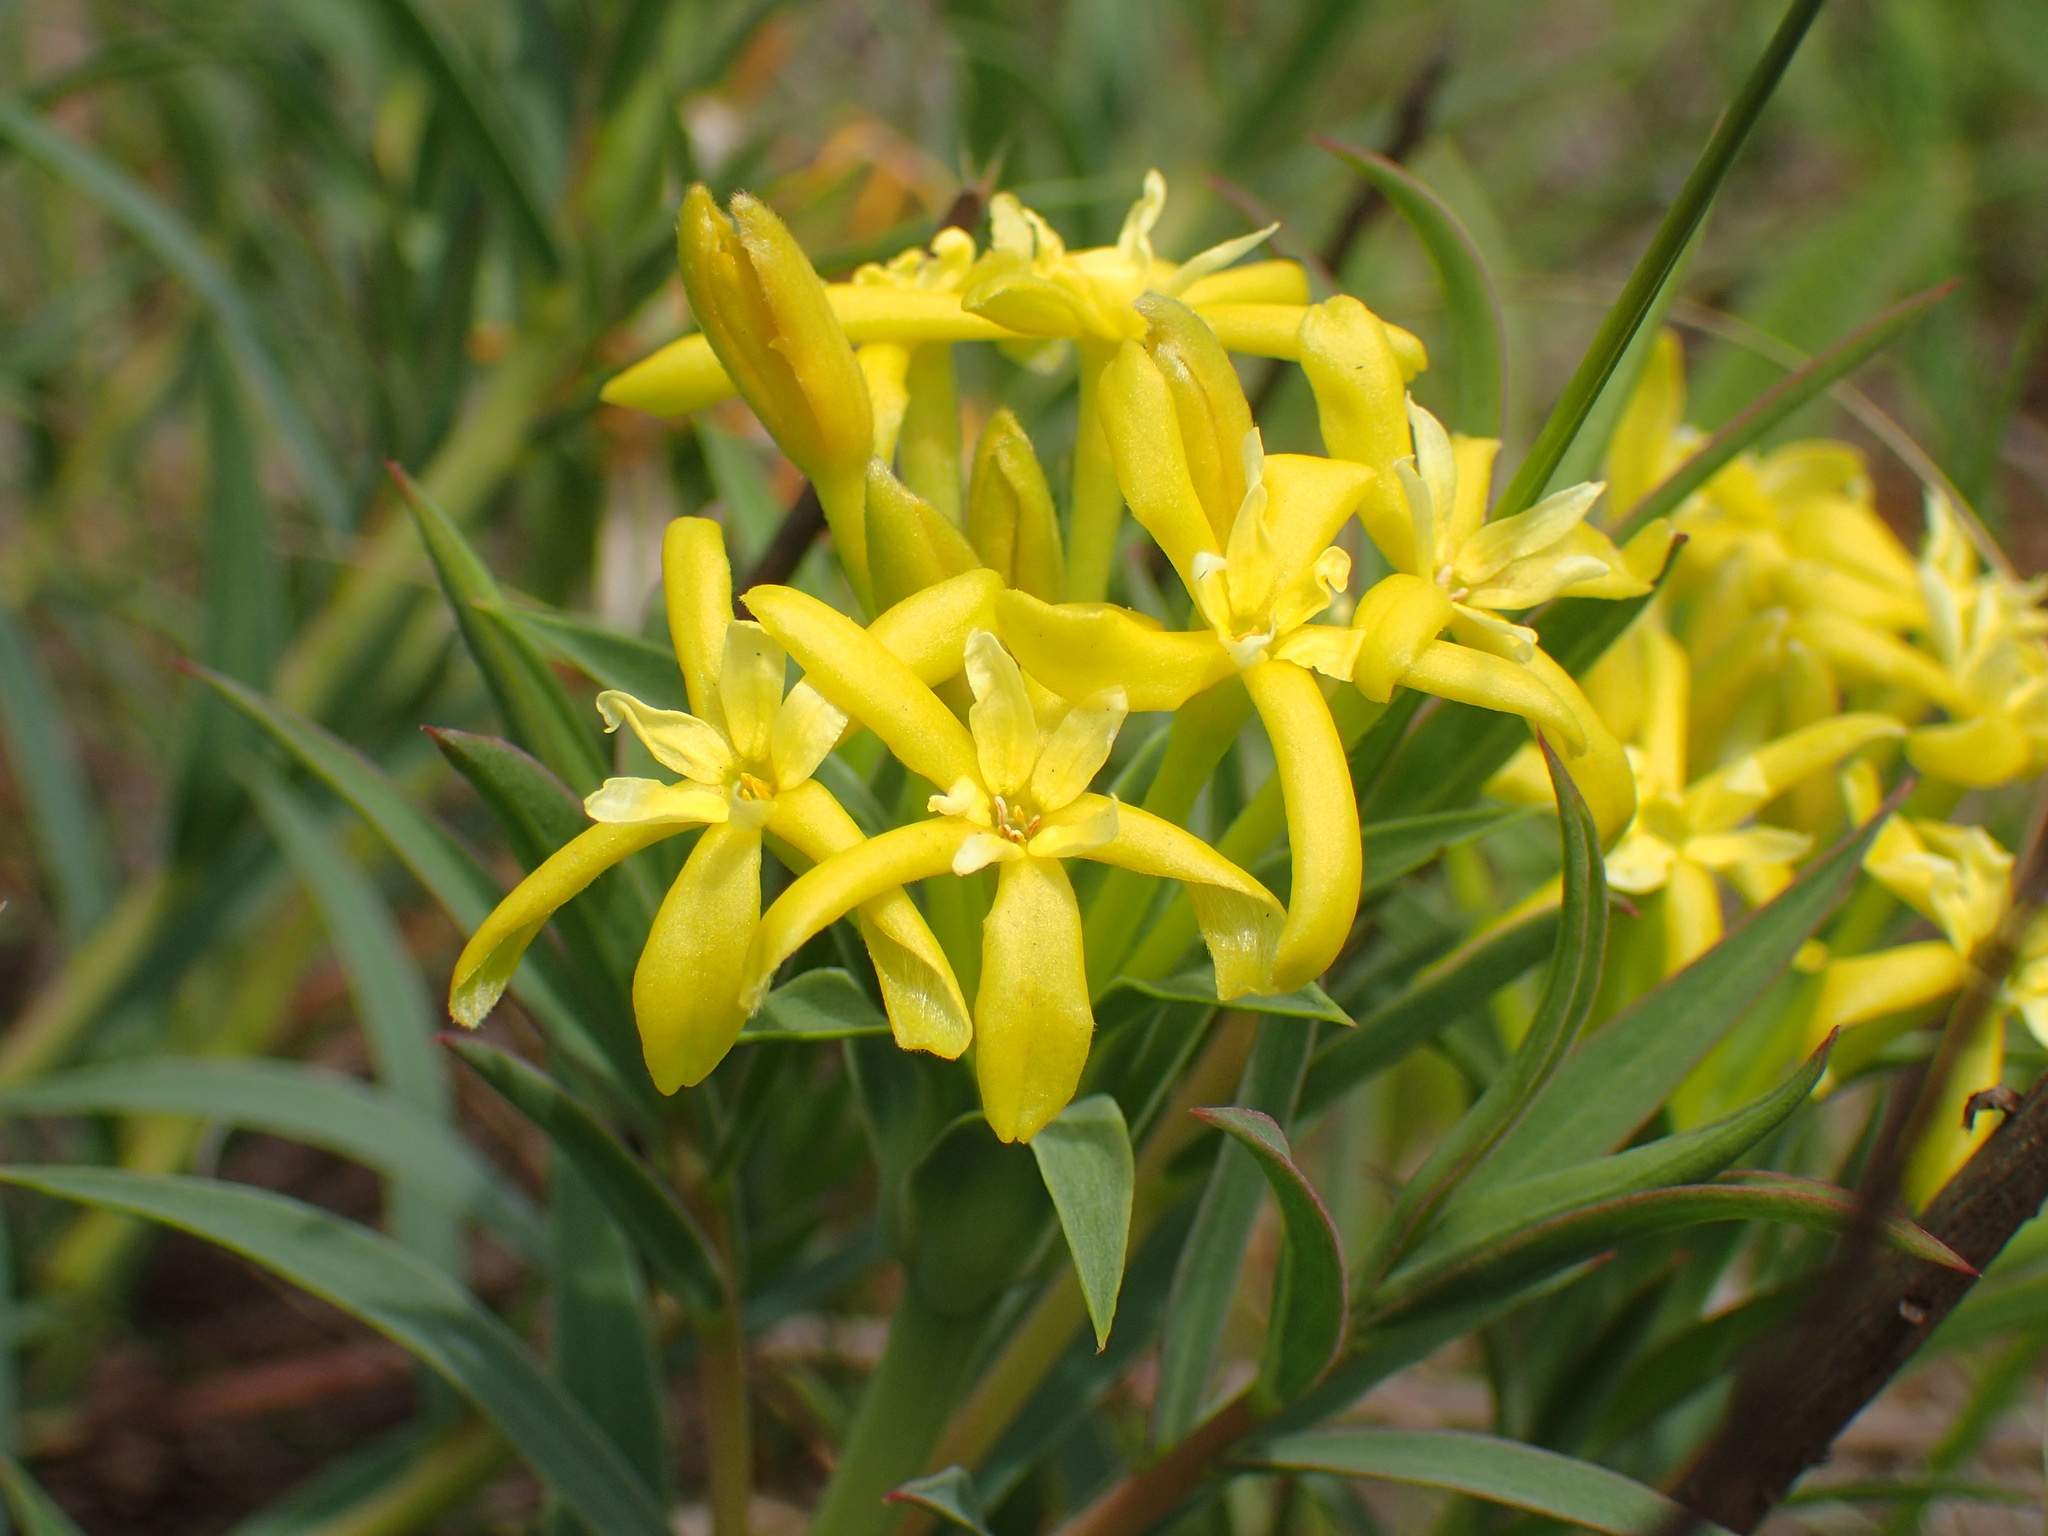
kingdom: Plantae
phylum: Tracheophyta
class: Magnoliopsida
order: Malvales
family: Thymelaeaceae
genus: Gnidia
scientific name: Gnidia robusta
